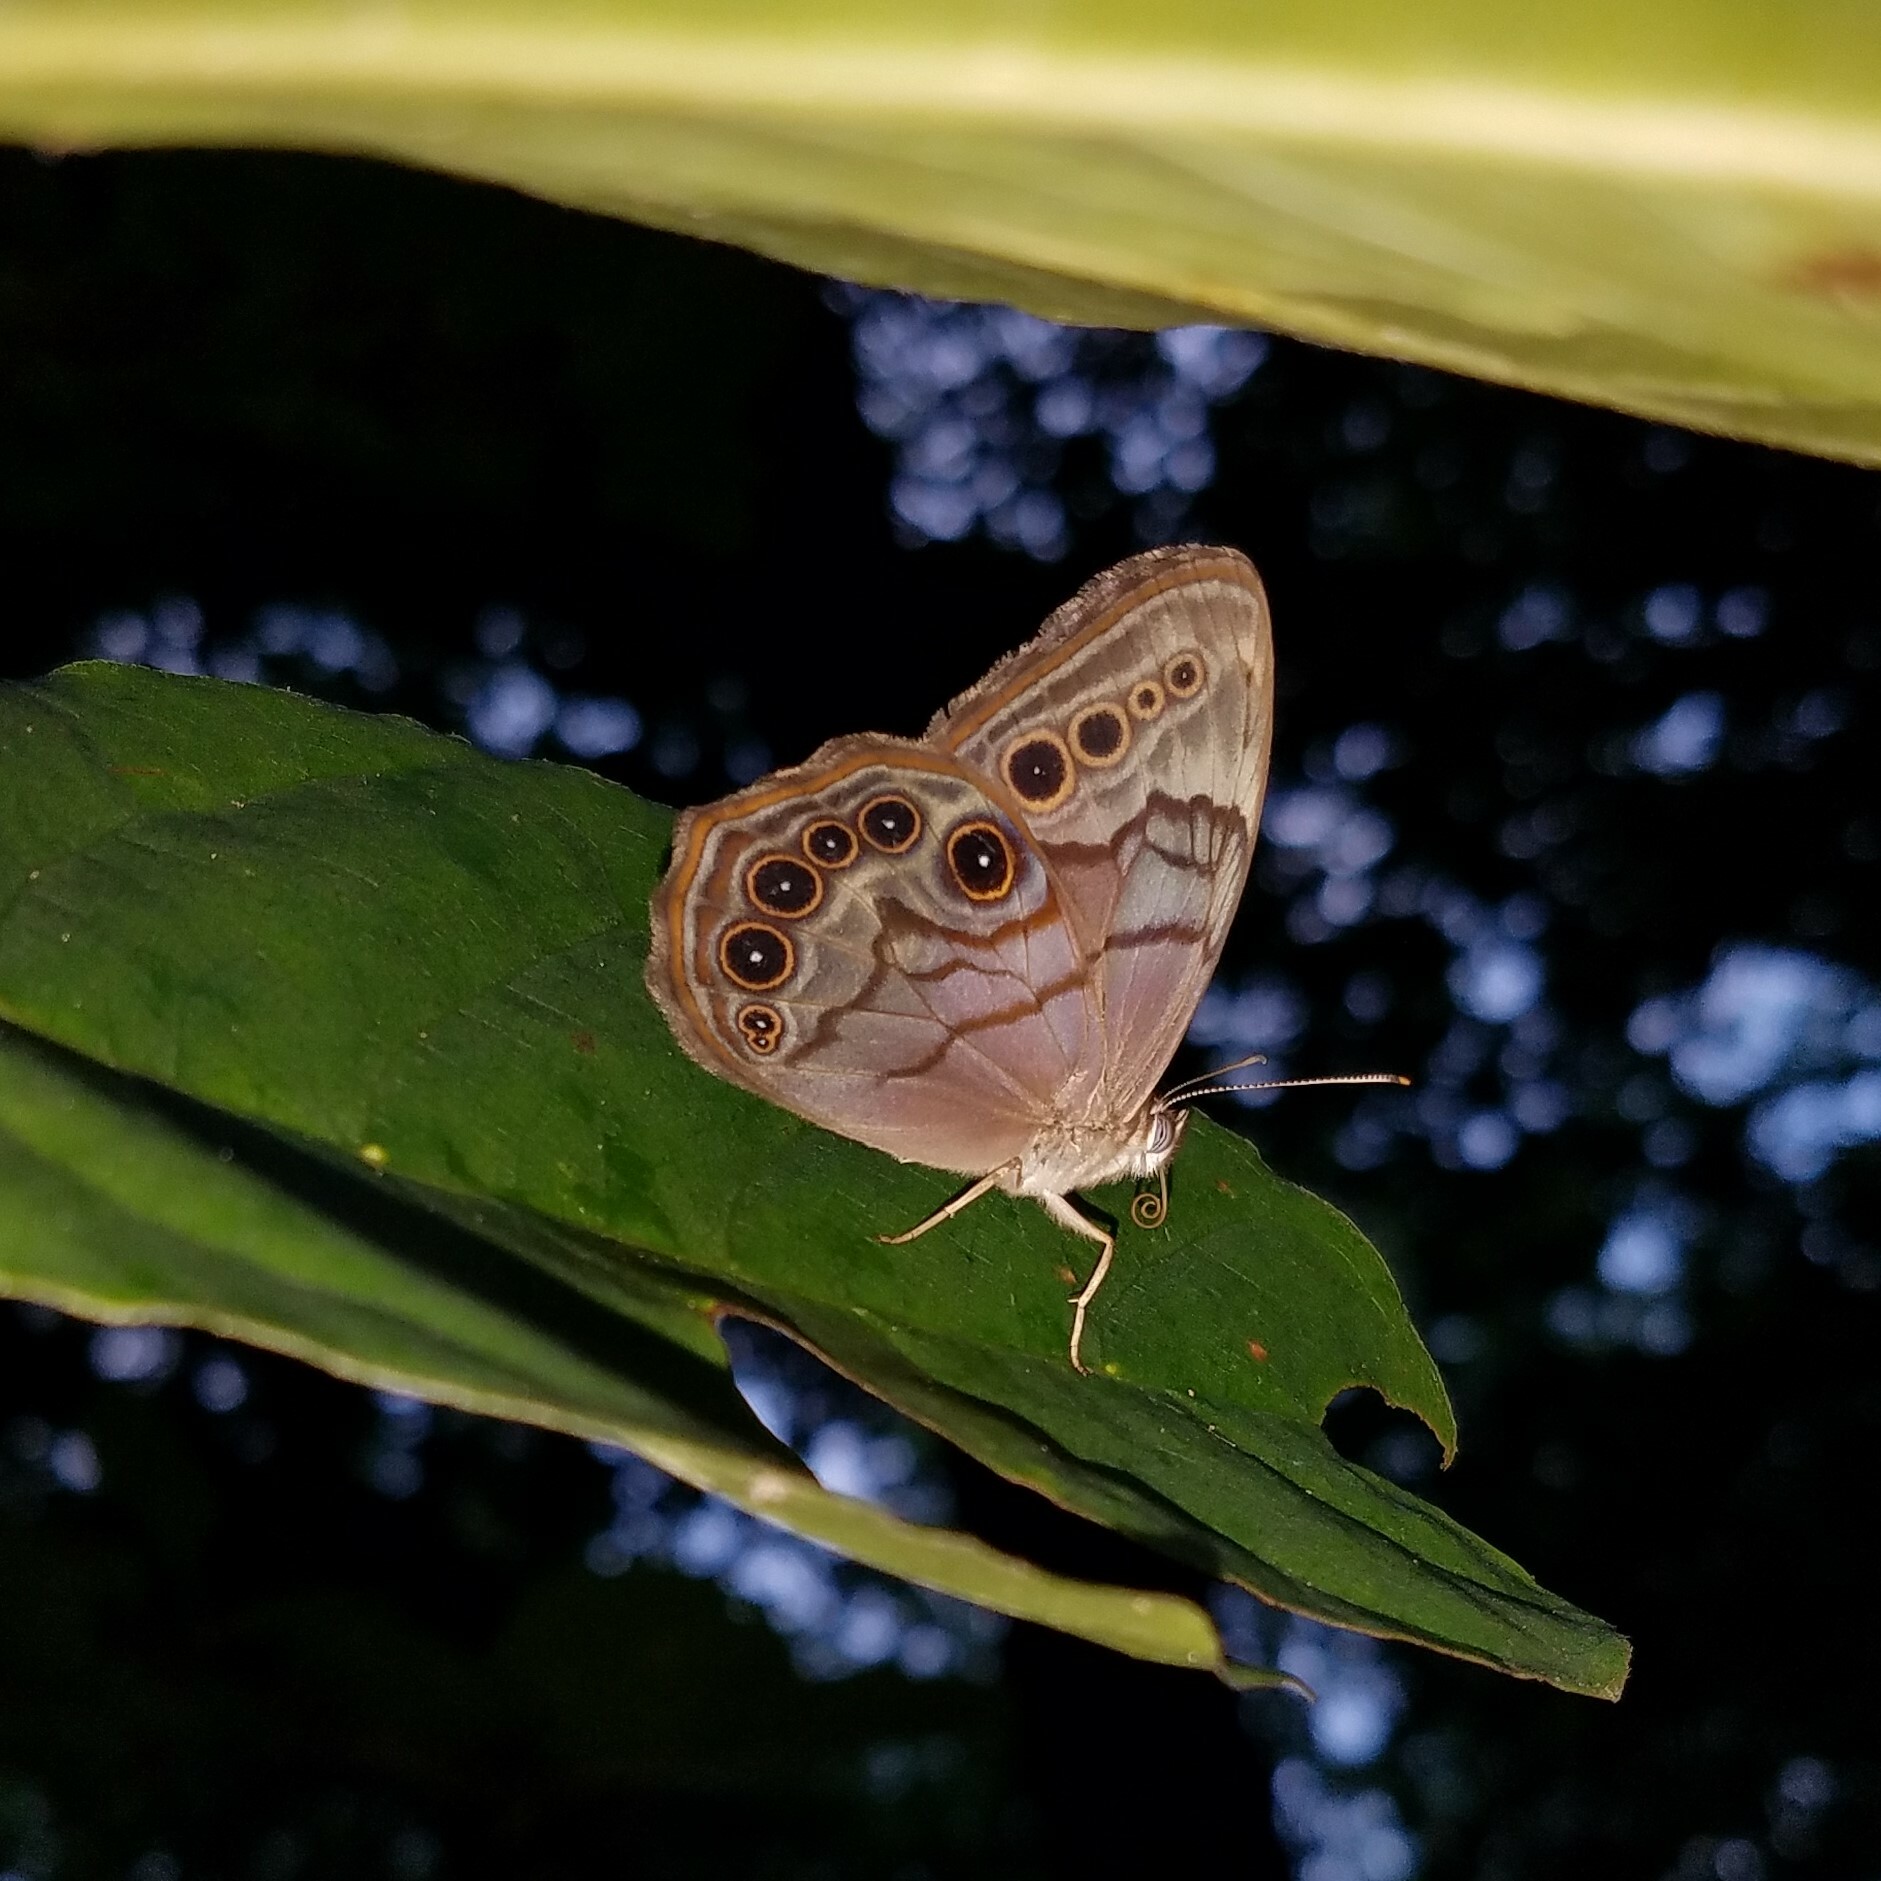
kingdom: Animalia
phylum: Arthropoda
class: Insecta
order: Lepidoptera
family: Nymphalidae
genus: Lethe
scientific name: Lethe anthedon
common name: Northern pearly-eye
